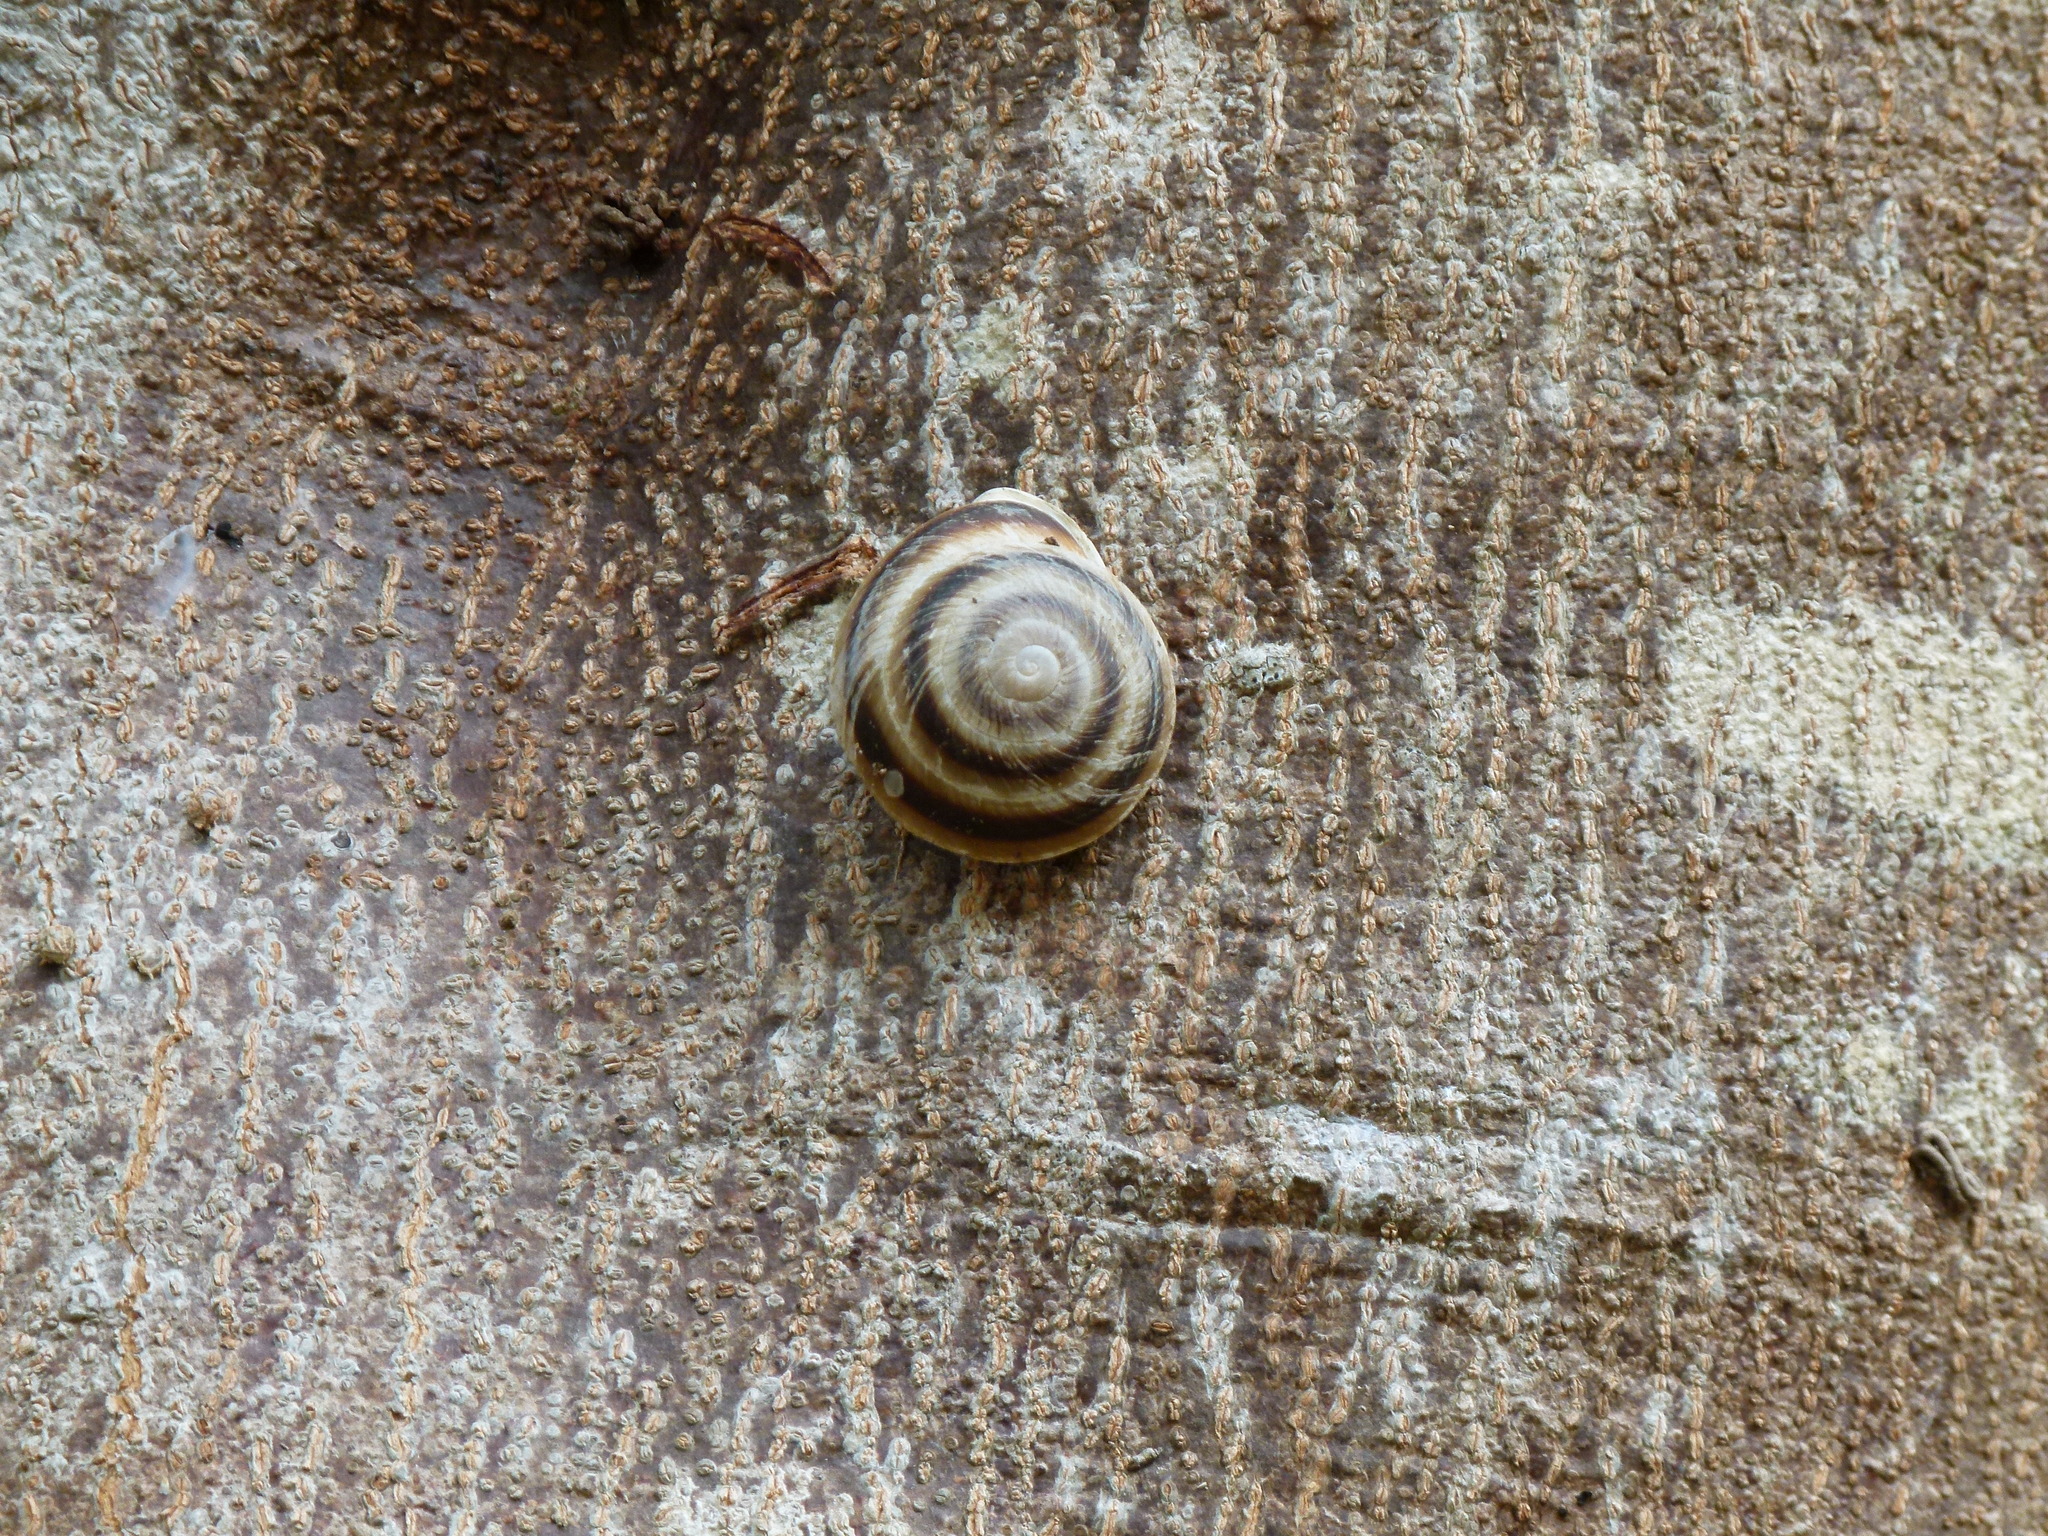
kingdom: Animalia
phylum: Mollusca
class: Gastropoda
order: Stylommatophora
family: Solaropsidae
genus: Caracolus
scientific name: Caracolus marginella
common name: Banded caracol
